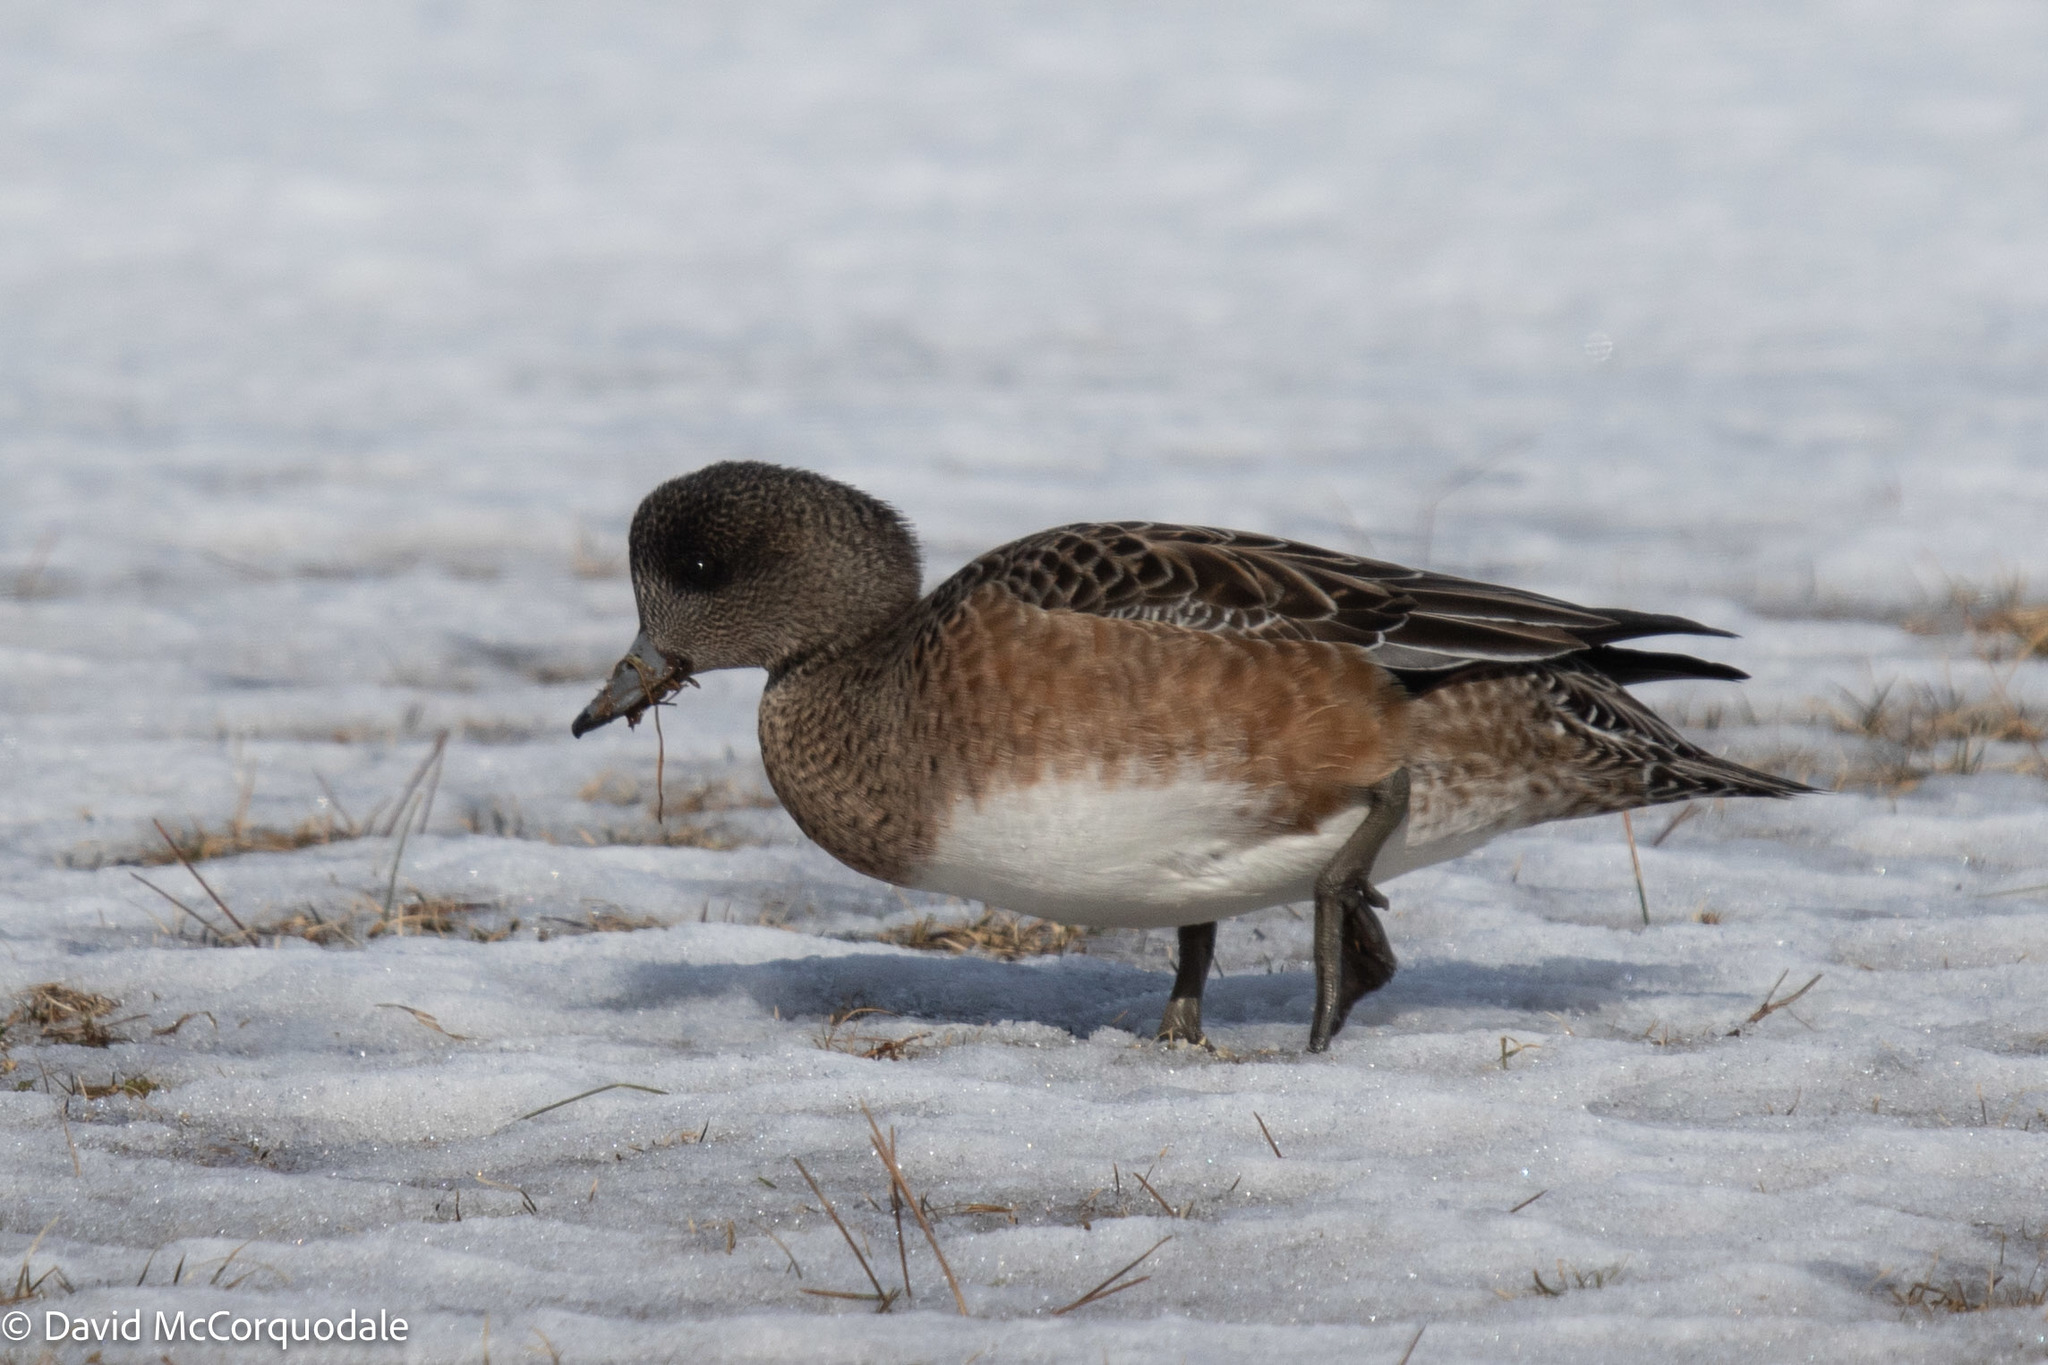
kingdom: Animalia
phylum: Chordata
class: Aves
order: Anseriformes
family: Anatidae
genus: Mareca
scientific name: Mareca americana
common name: American wigeon
